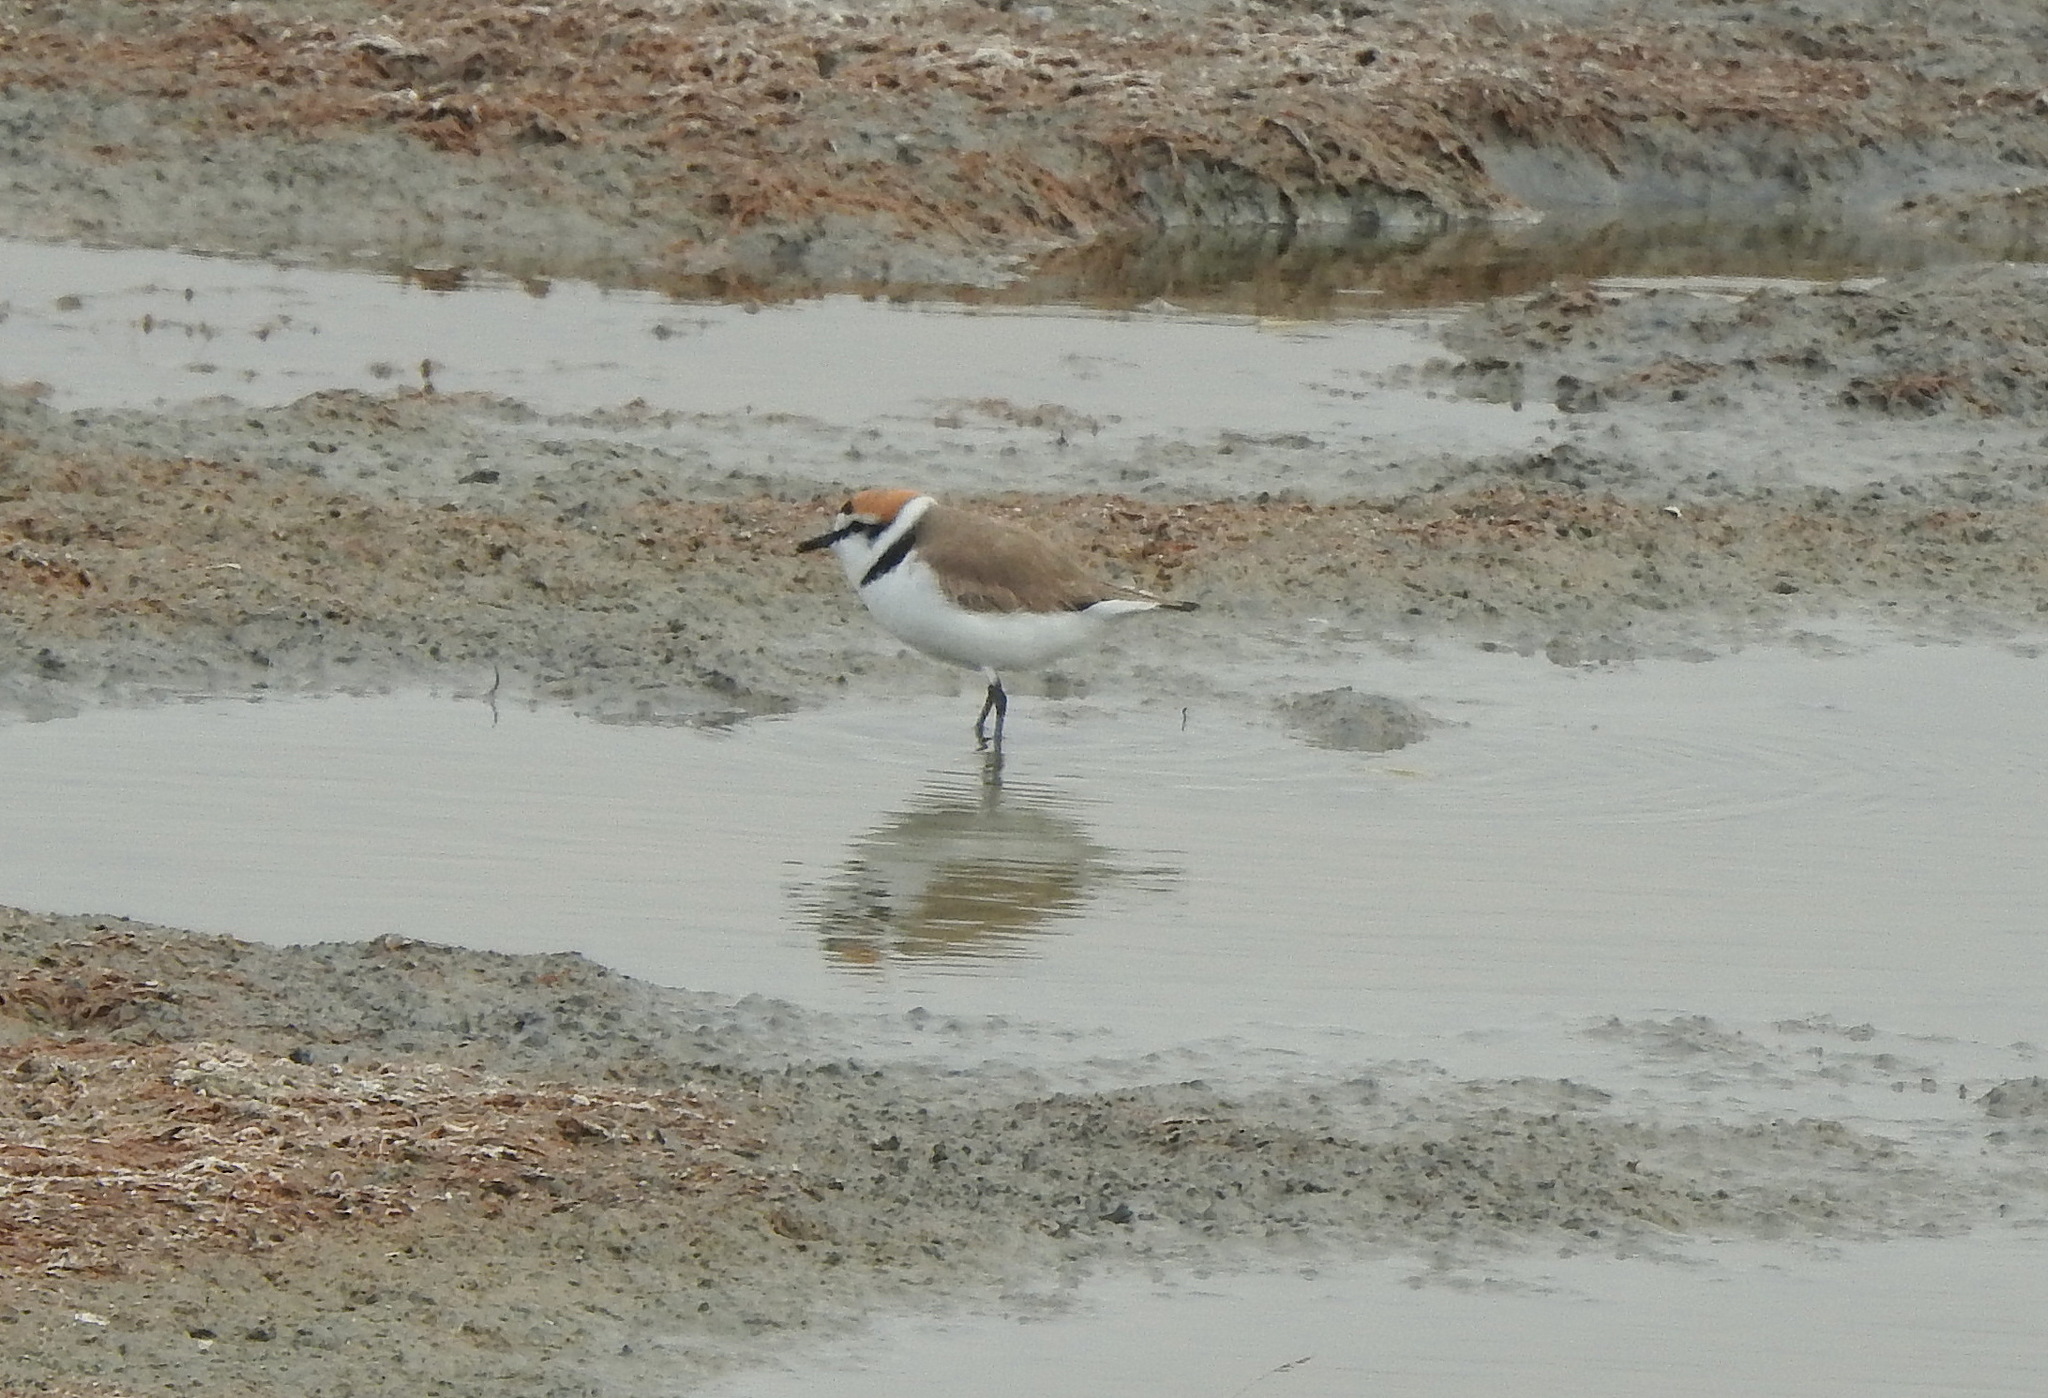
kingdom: Animalia
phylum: Chordata
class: Aves
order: Charadriiformes
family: Charadriidae
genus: Charadrius
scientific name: Charadrius alexandrinus
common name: Kentish plover
